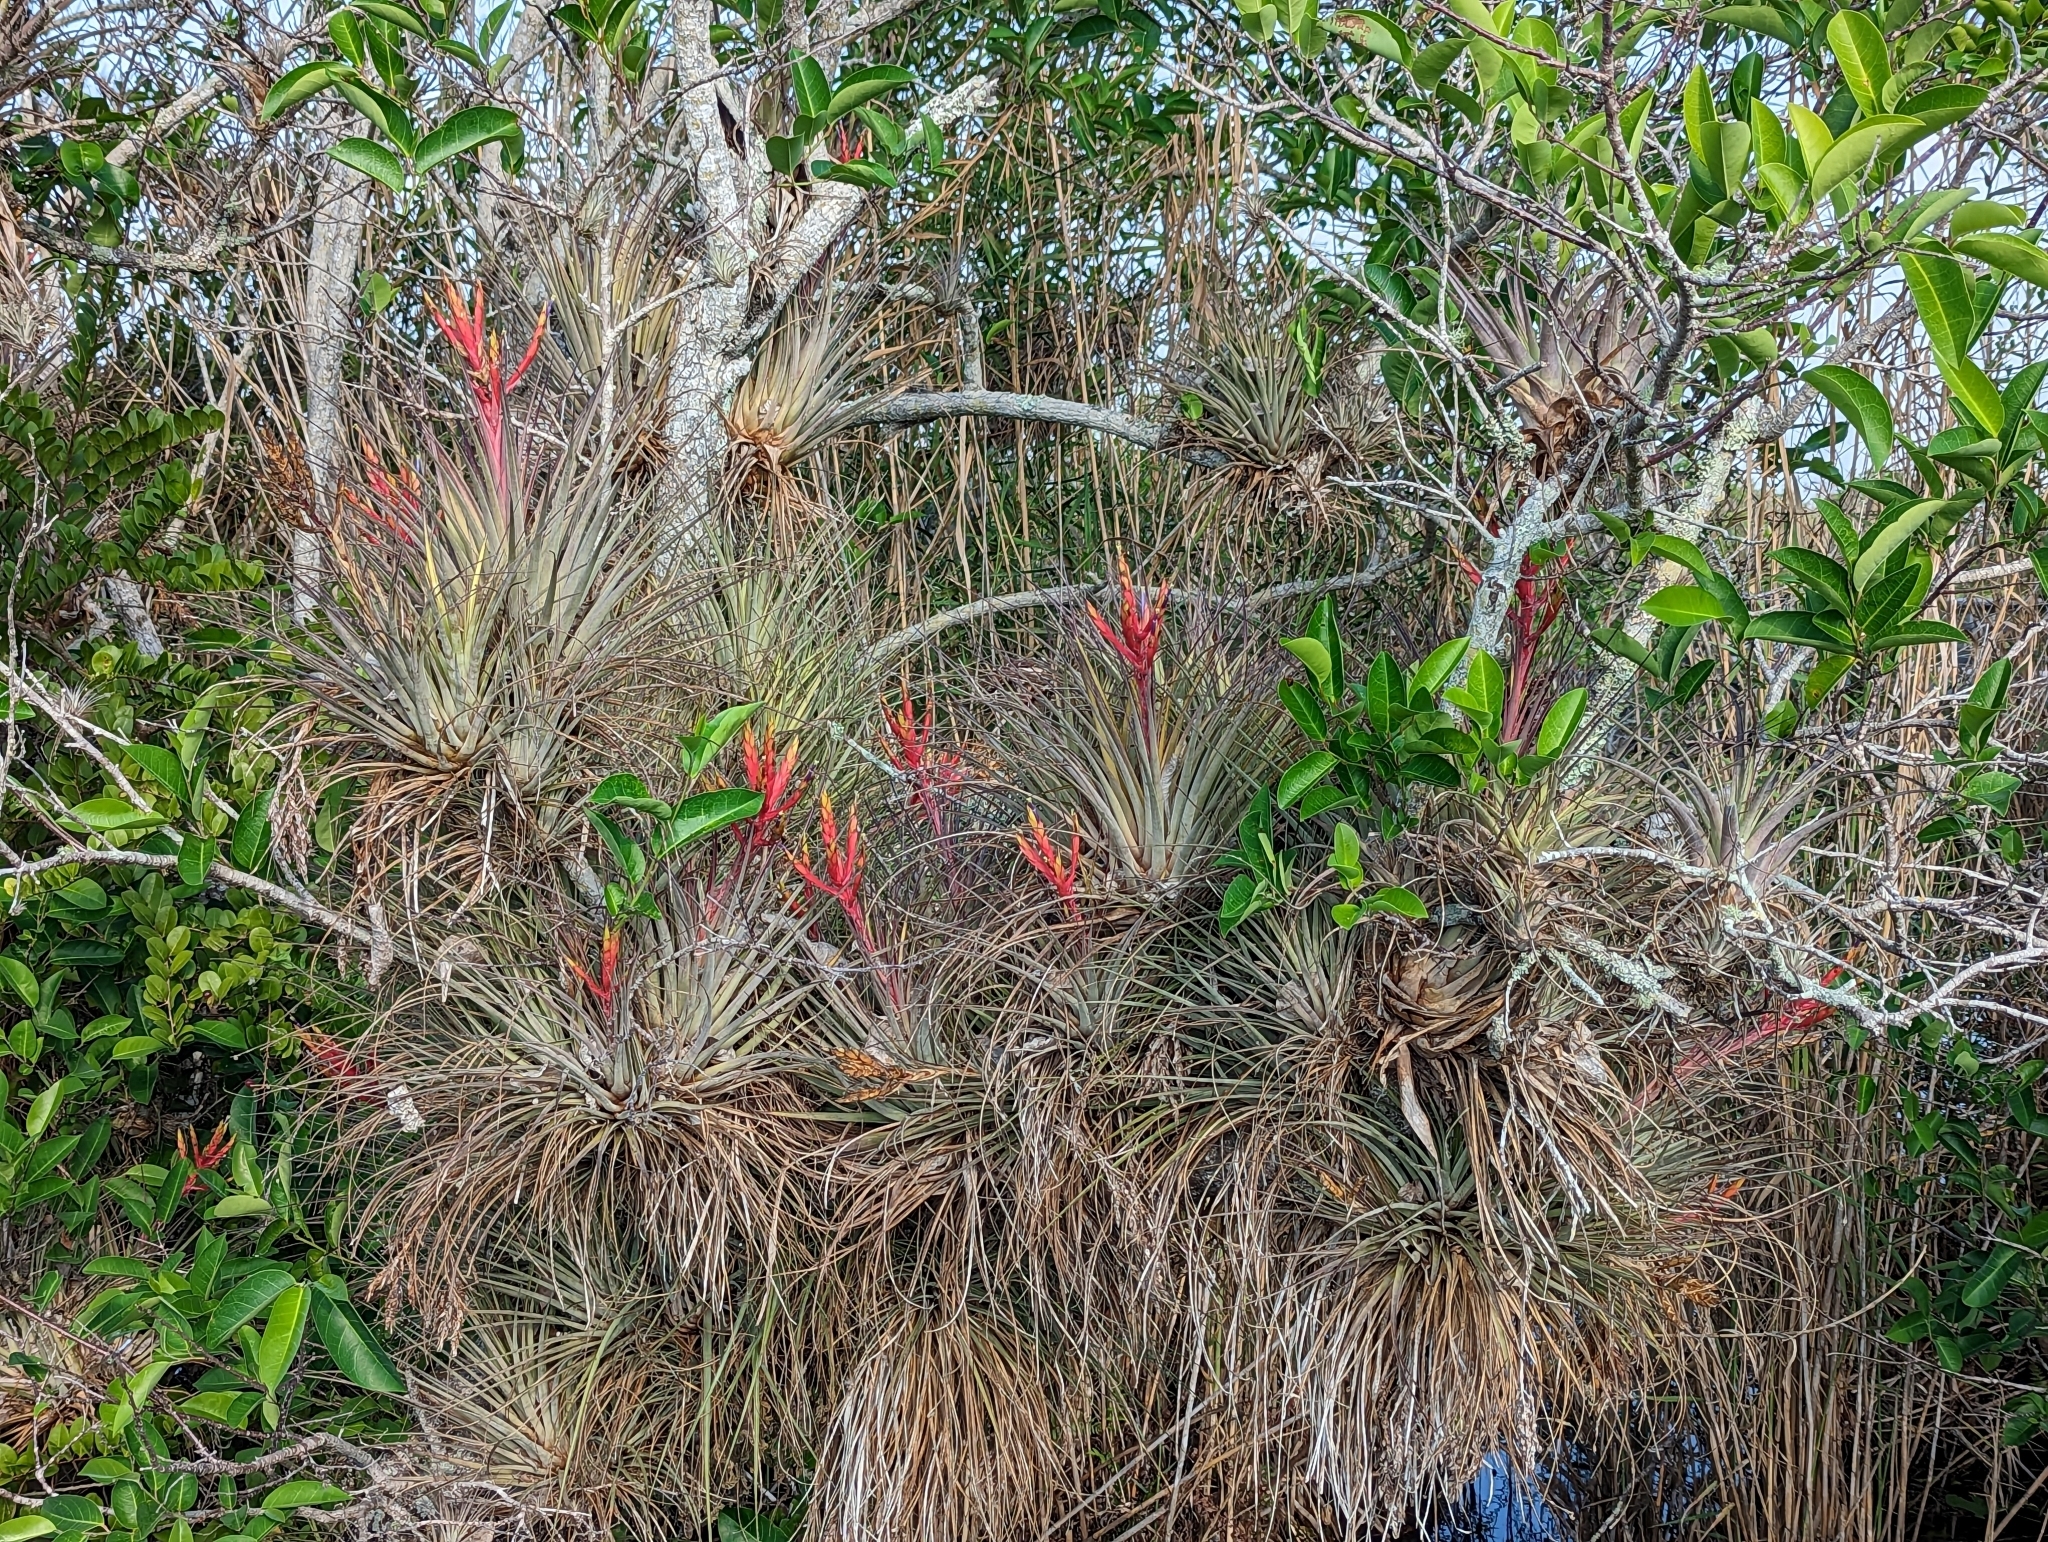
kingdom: Plantae
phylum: Tracheophyta
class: Liliopsida
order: Poales
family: Bromeliaceae
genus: Tillandsia
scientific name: Tillandsia fasciculata
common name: Giant airplant
